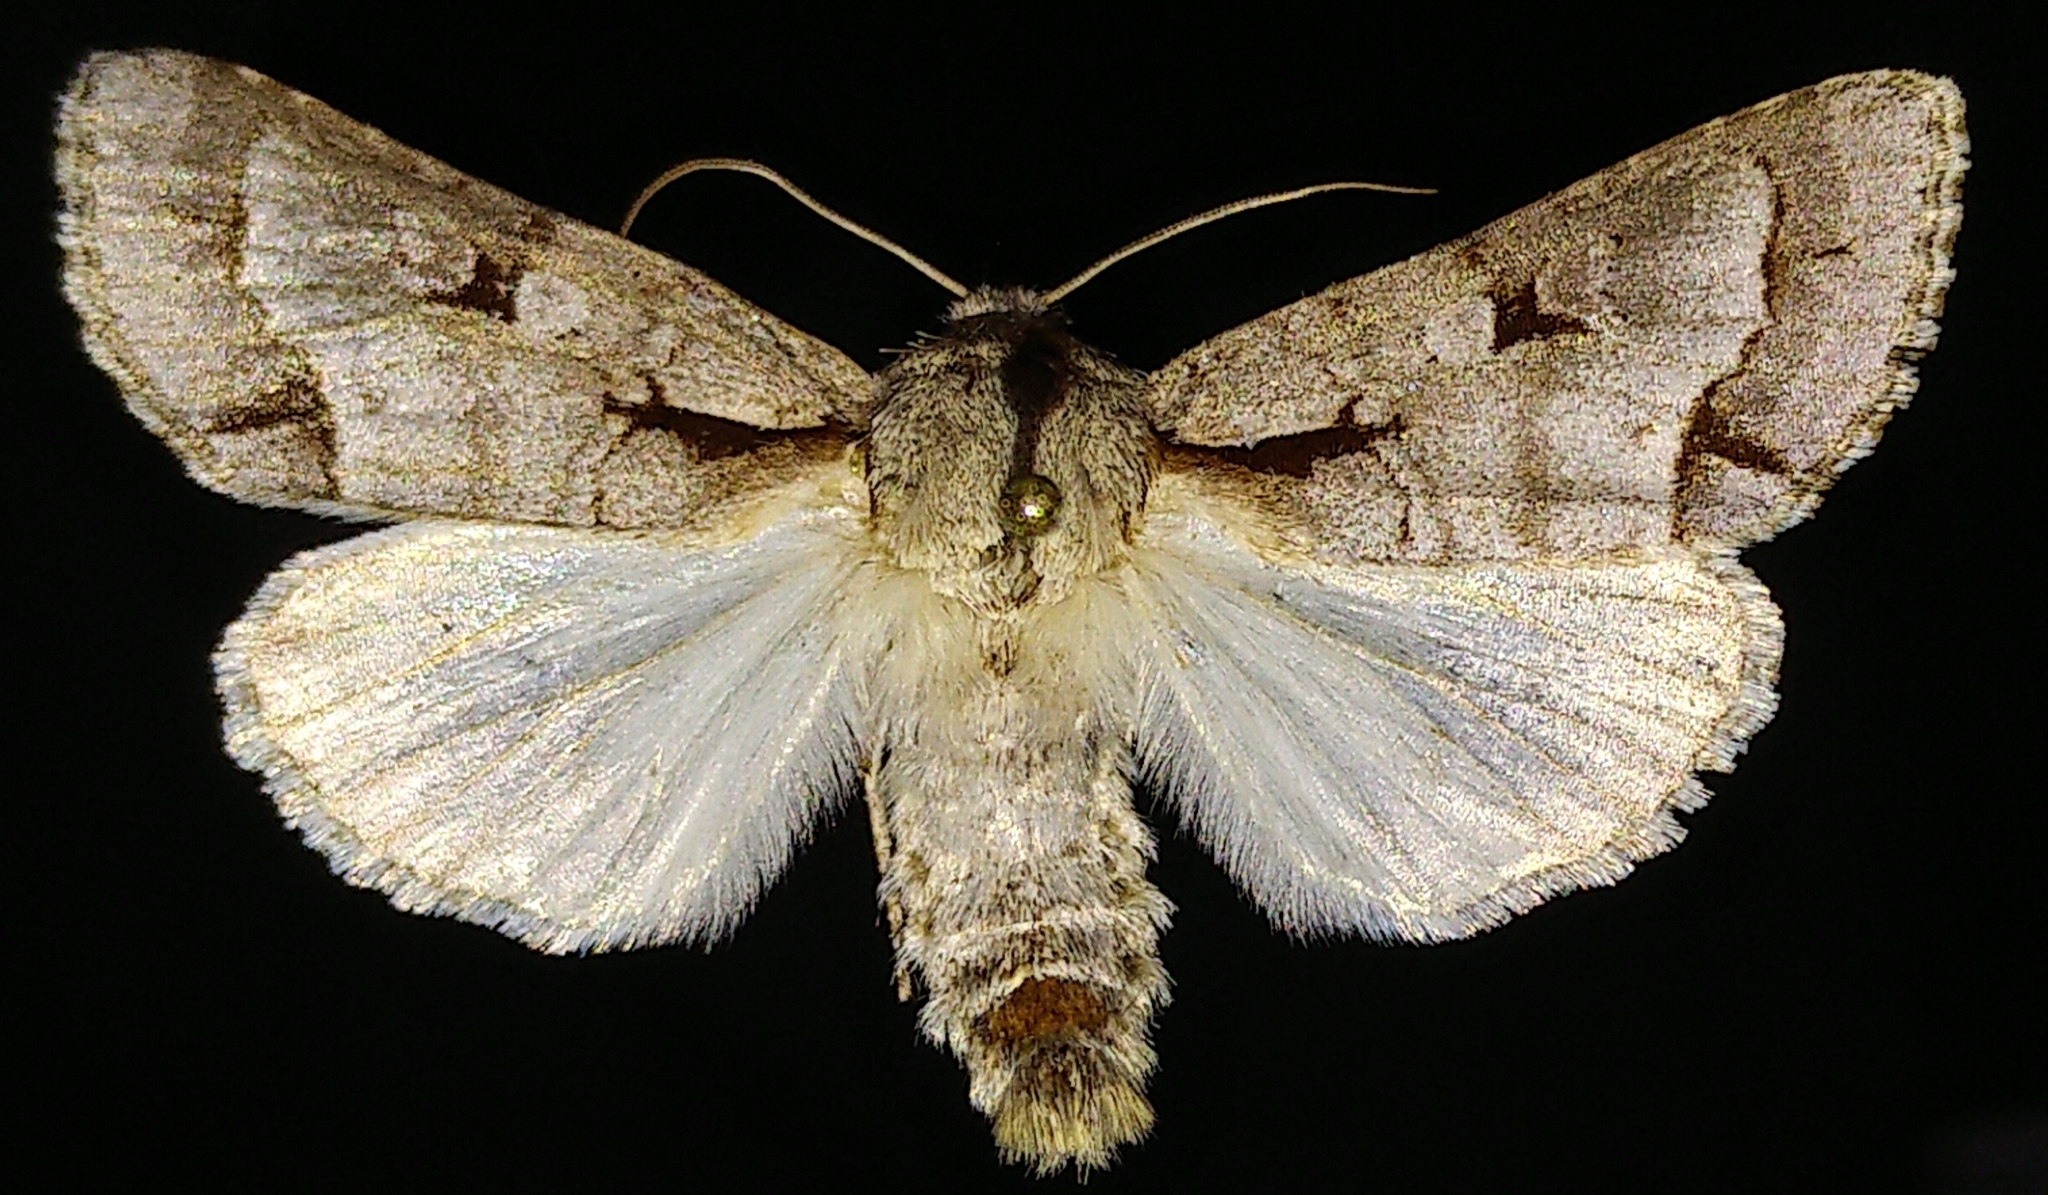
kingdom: Animalia
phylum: Arthropoda
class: Insecta
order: Lepidoptera
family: Noctuidae
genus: Acronicta
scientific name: Acronicta quadrata
